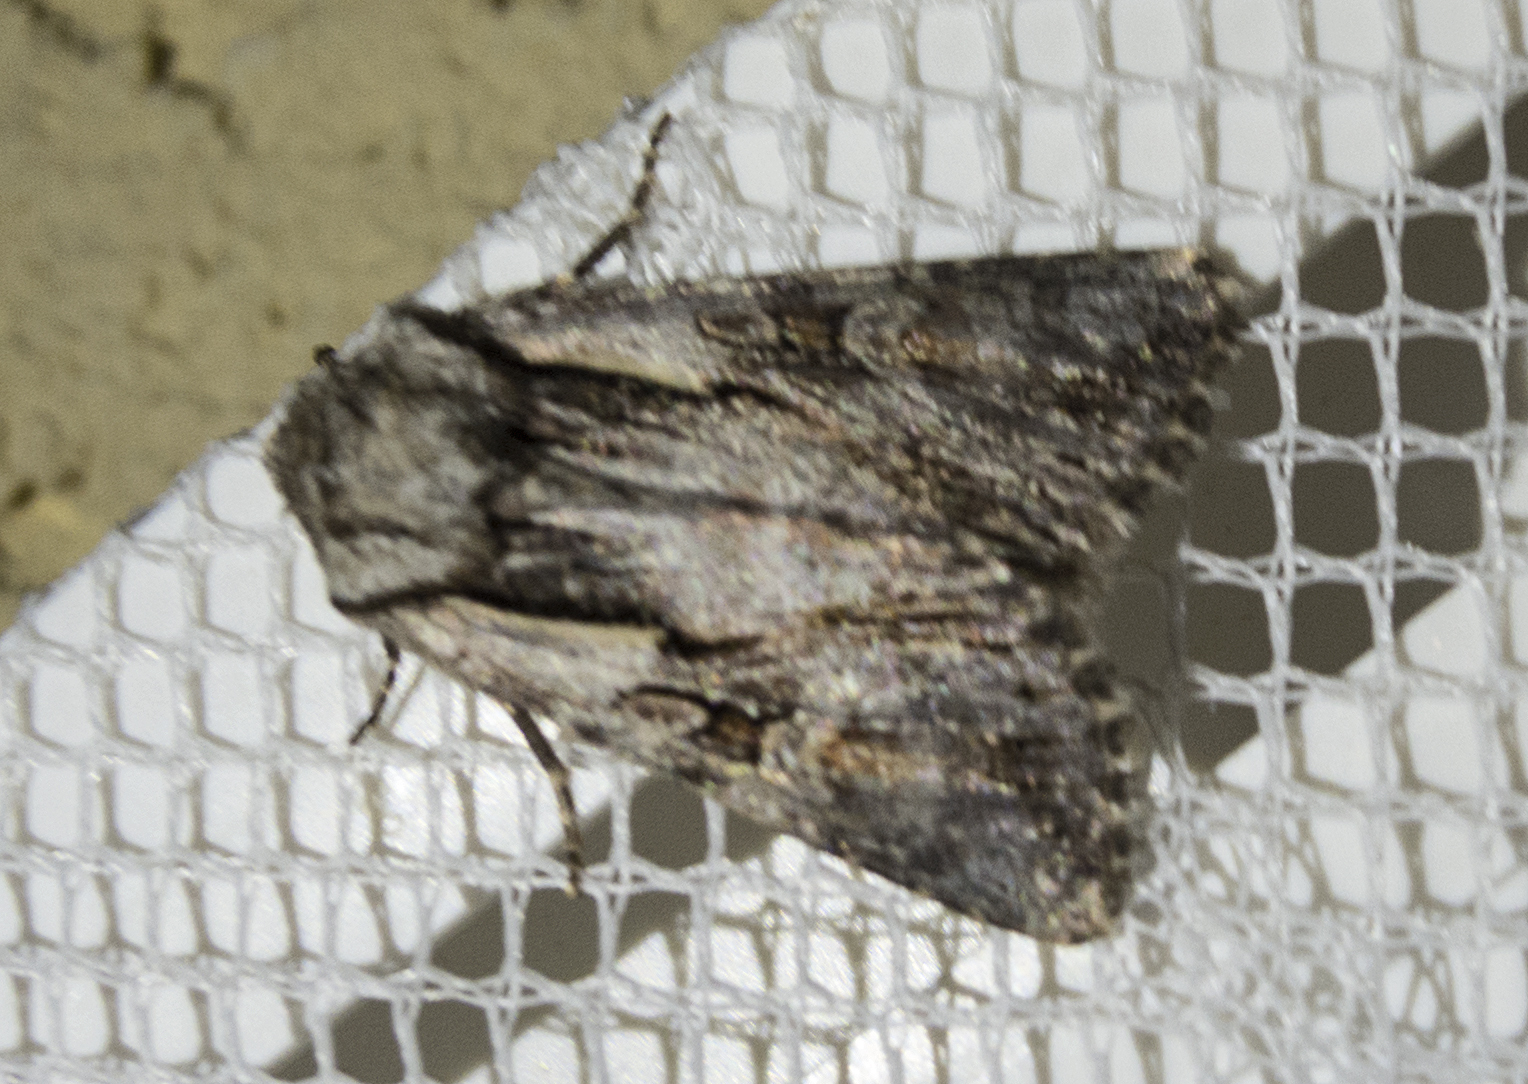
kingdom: Animalia
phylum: Arthropoda
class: Insecta
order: Lepidoptera
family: Noctuidae
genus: Chloantha
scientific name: Chloantha hyperici
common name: Pale-shouldered cloud
